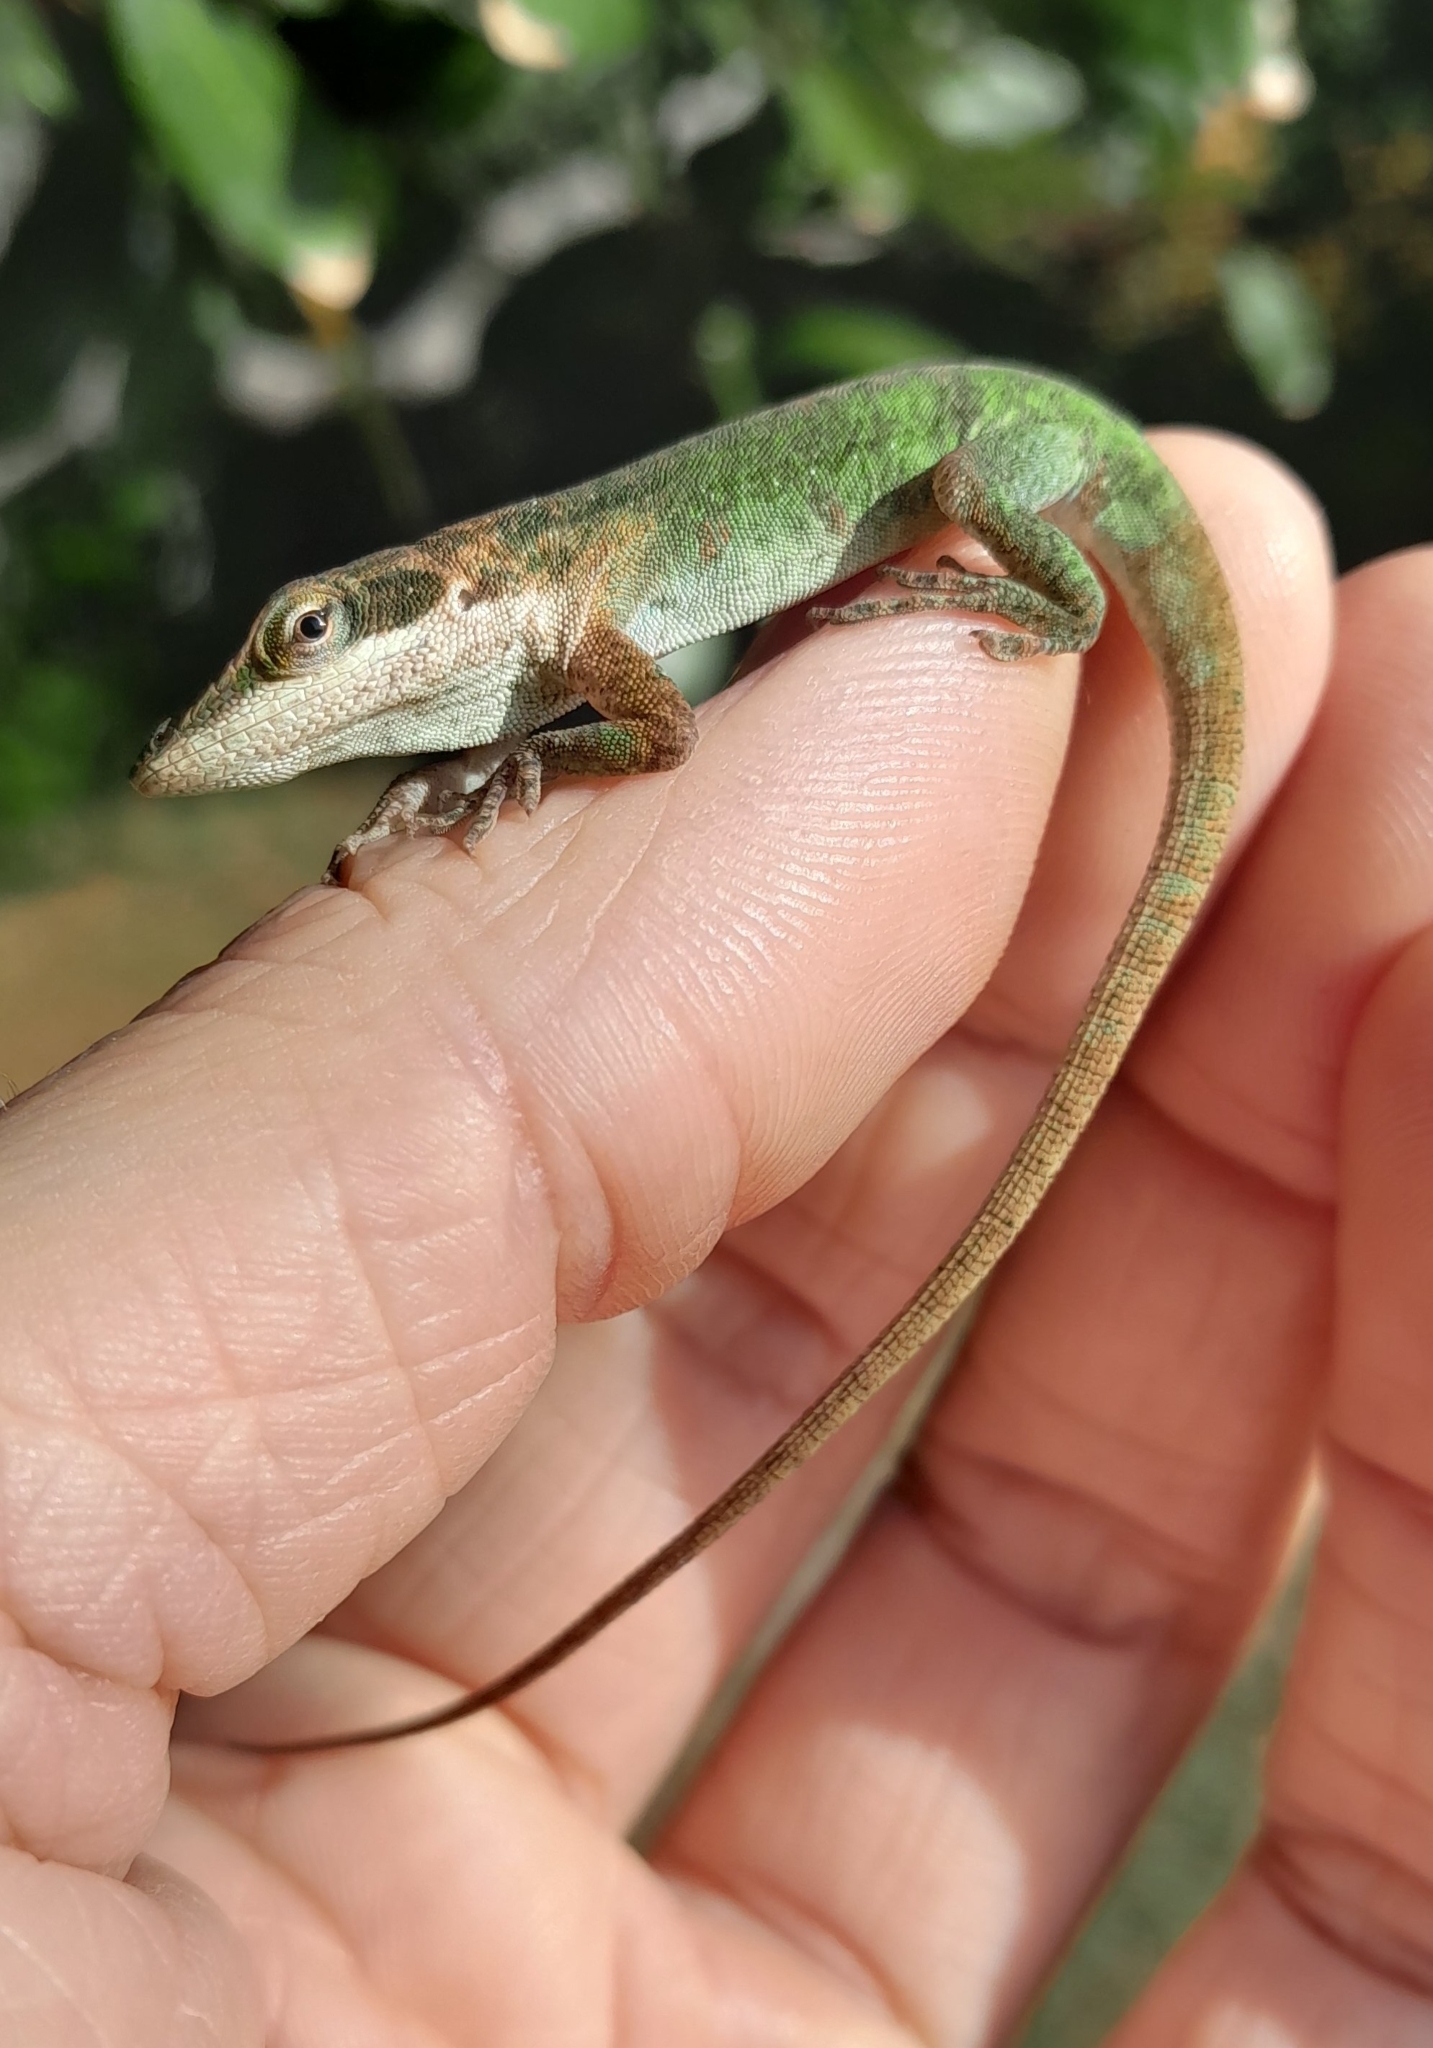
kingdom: Animalia
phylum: Chordata
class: Squamata
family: Dactyloidae
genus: Anolis
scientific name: Anolis carolinensis
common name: Green anole
